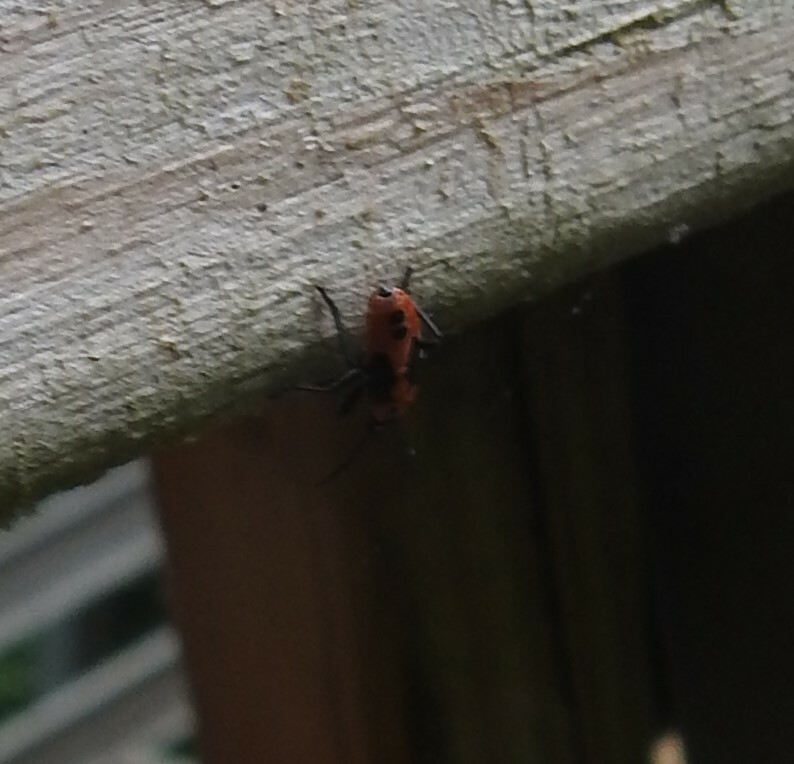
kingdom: Animalia
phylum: Arthropoda
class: Insecta
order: Hemiptera
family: Lygaeidae
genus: Lygaeus
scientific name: Lygaeus turcicus
